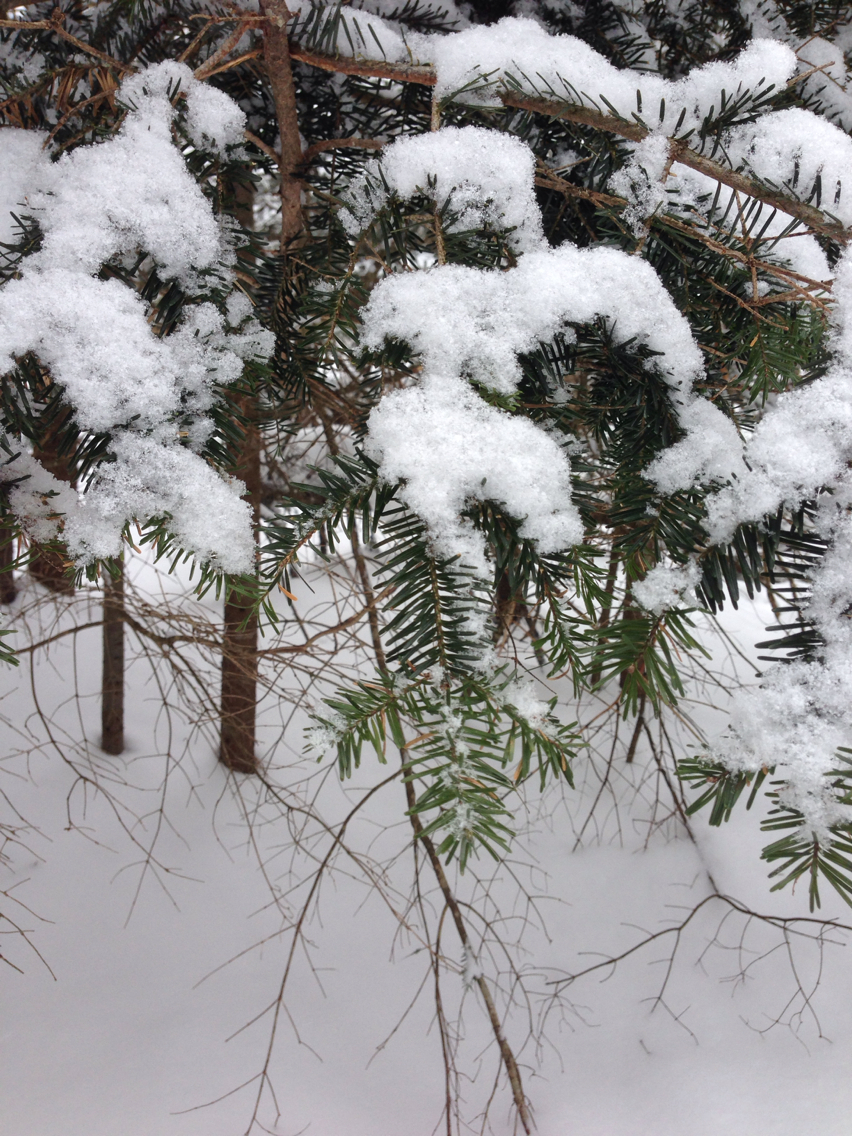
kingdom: Plantae
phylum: Tracheophyta
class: Pinopsida
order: Pinales
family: Pinaceae
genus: Abies
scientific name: Abies balsamea
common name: Balsam fir
